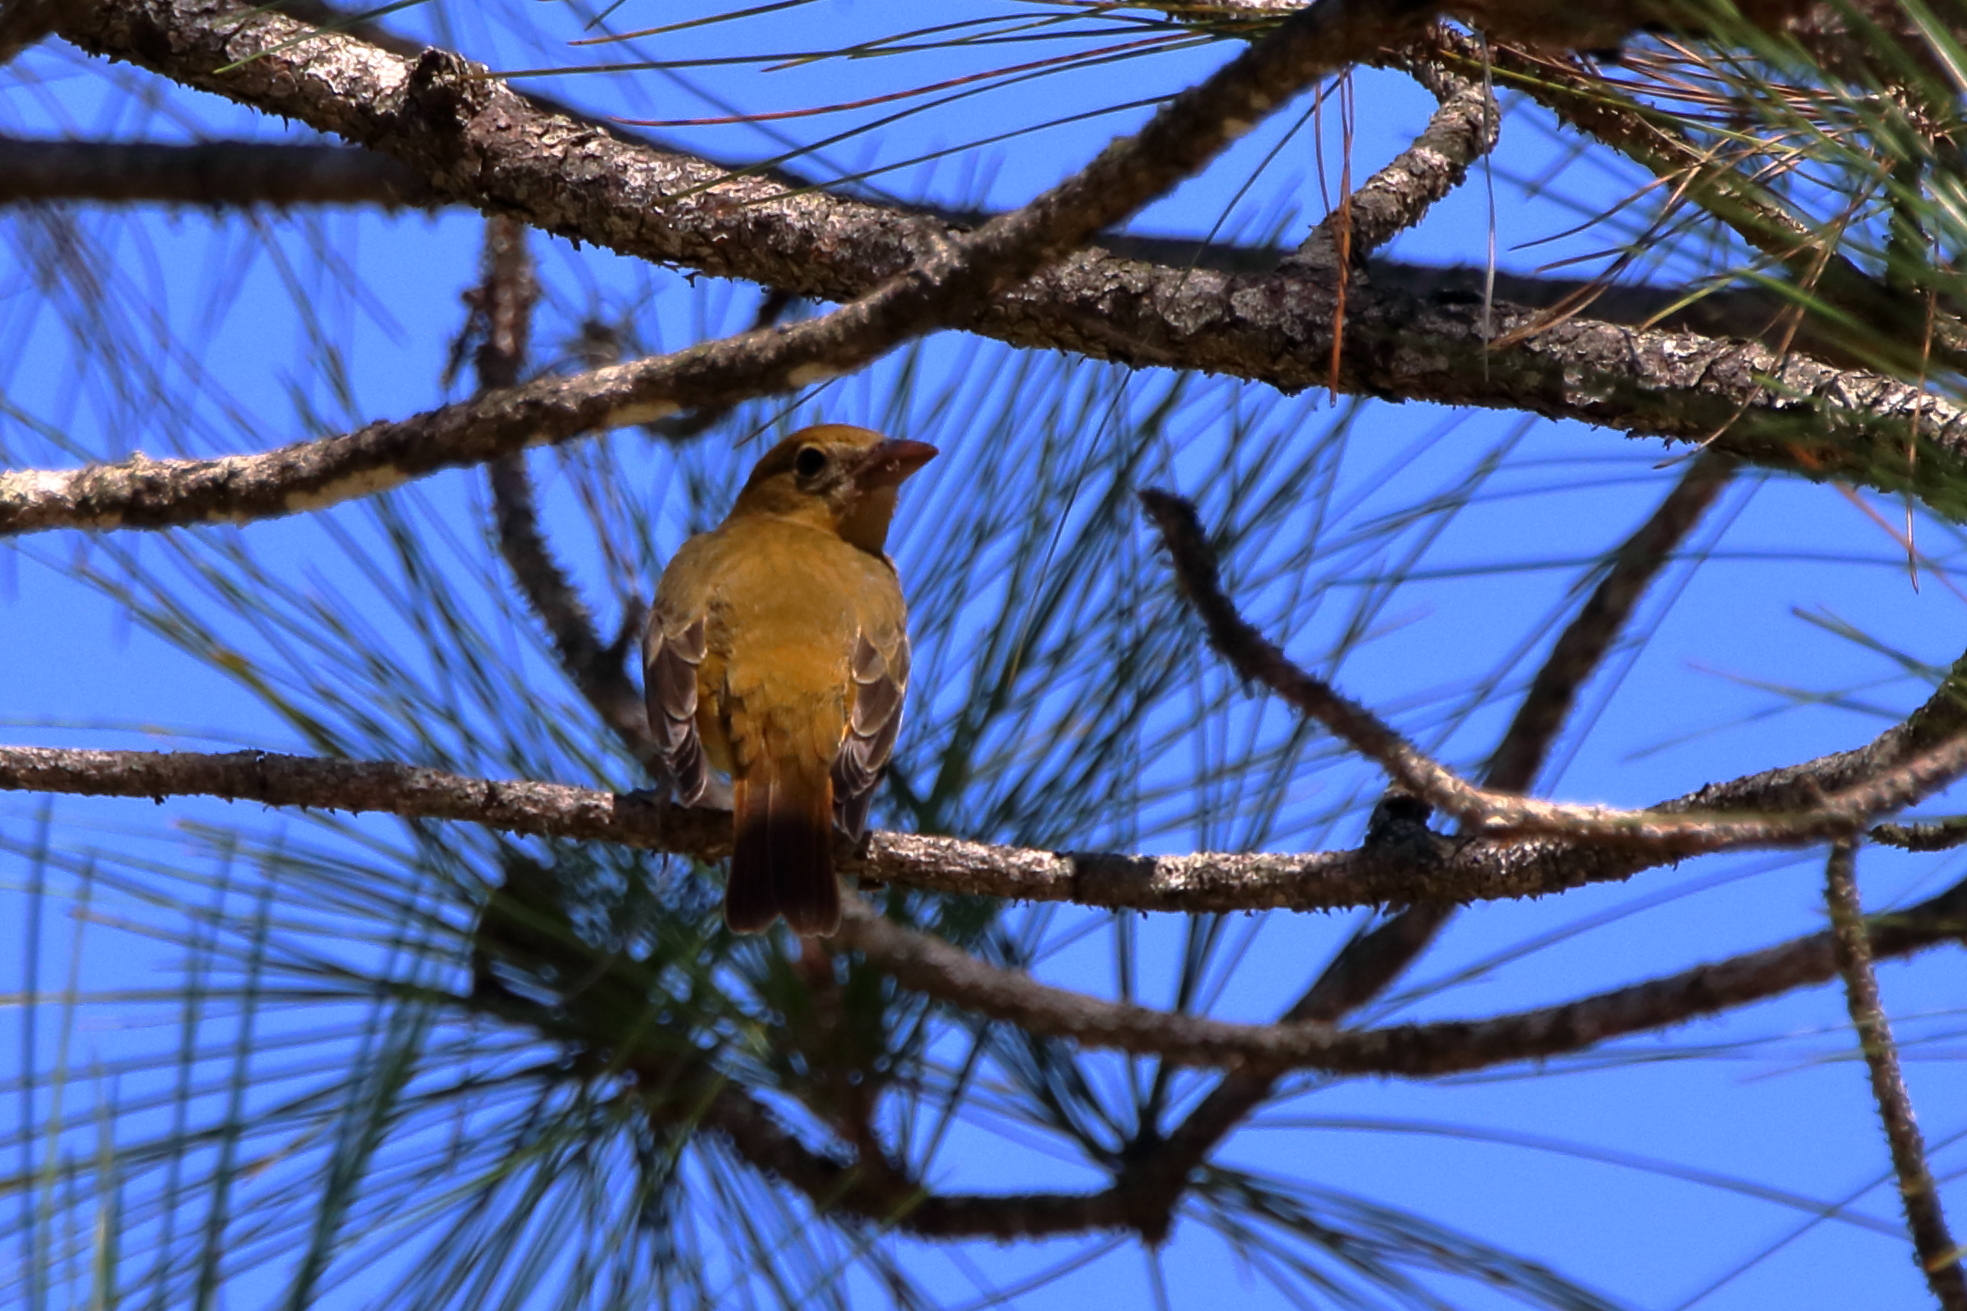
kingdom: Animalia
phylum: Chordata
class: Aves
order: Passeriformes
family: Cardinalidae
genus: Piranga
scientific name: Piranga rubra
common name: Summer tanager
